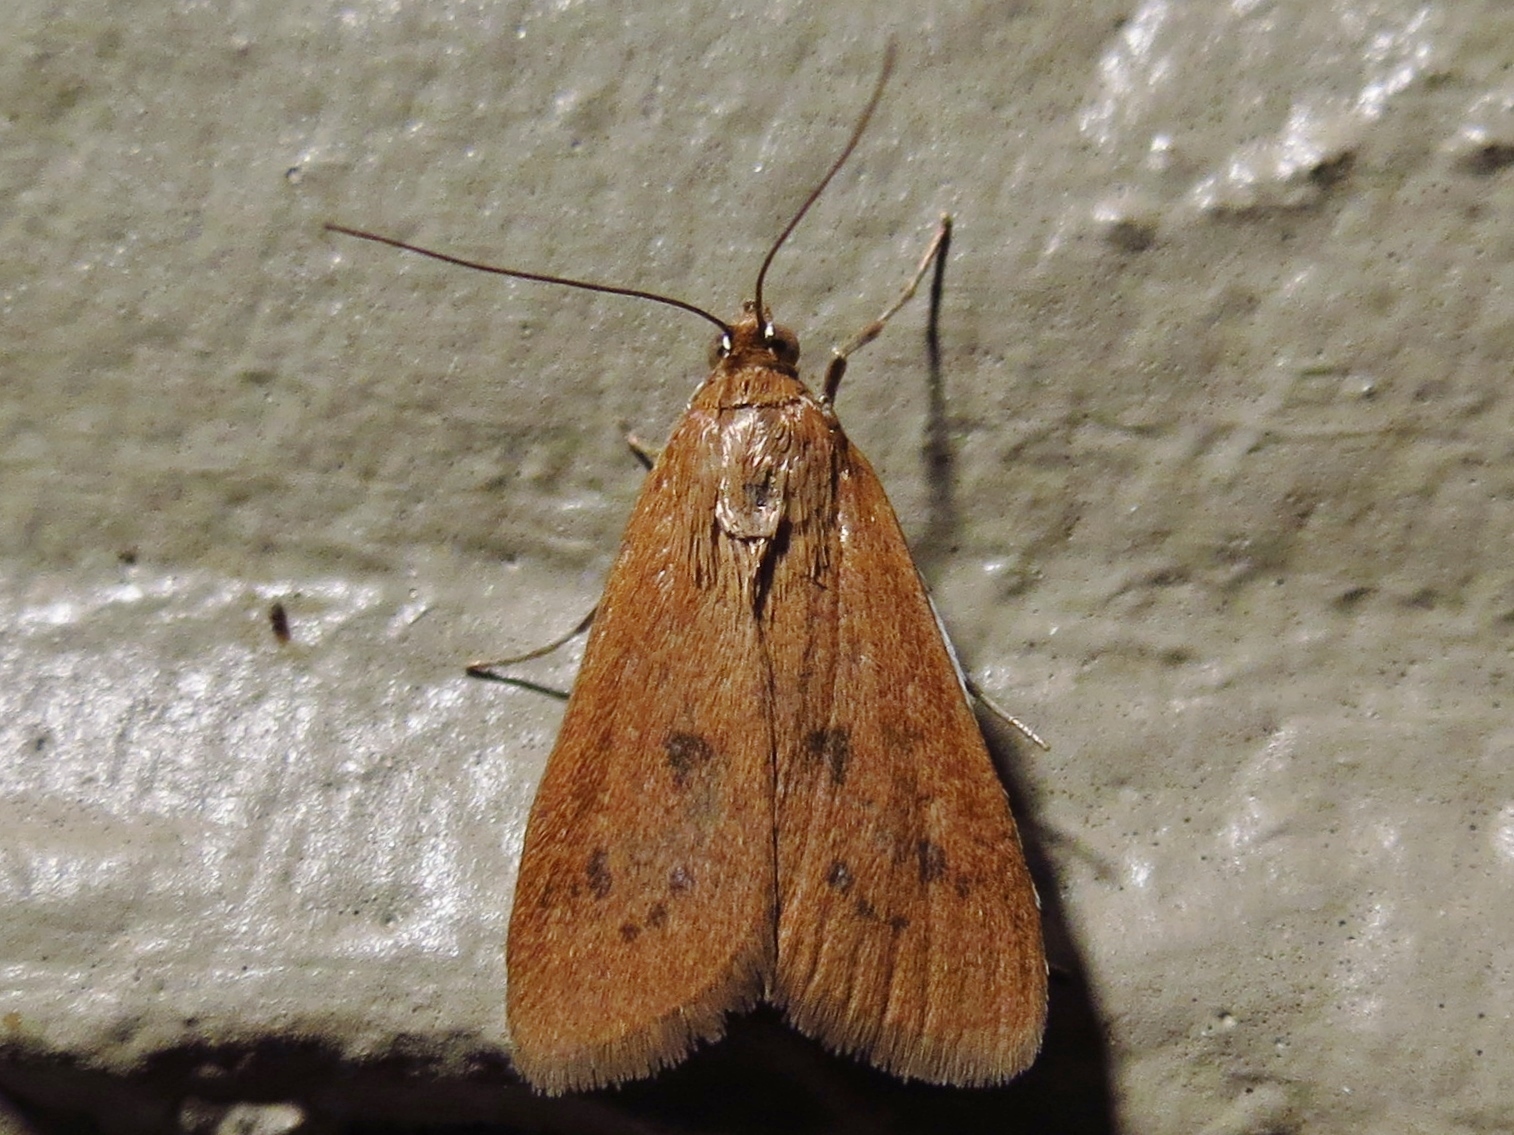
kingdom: Animalia
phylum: Arthropoda
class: Insecta
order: Lepidoptera
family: Crambidae
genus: Diastictis
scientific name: Diastictis ventralis
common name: White-spotted brown
